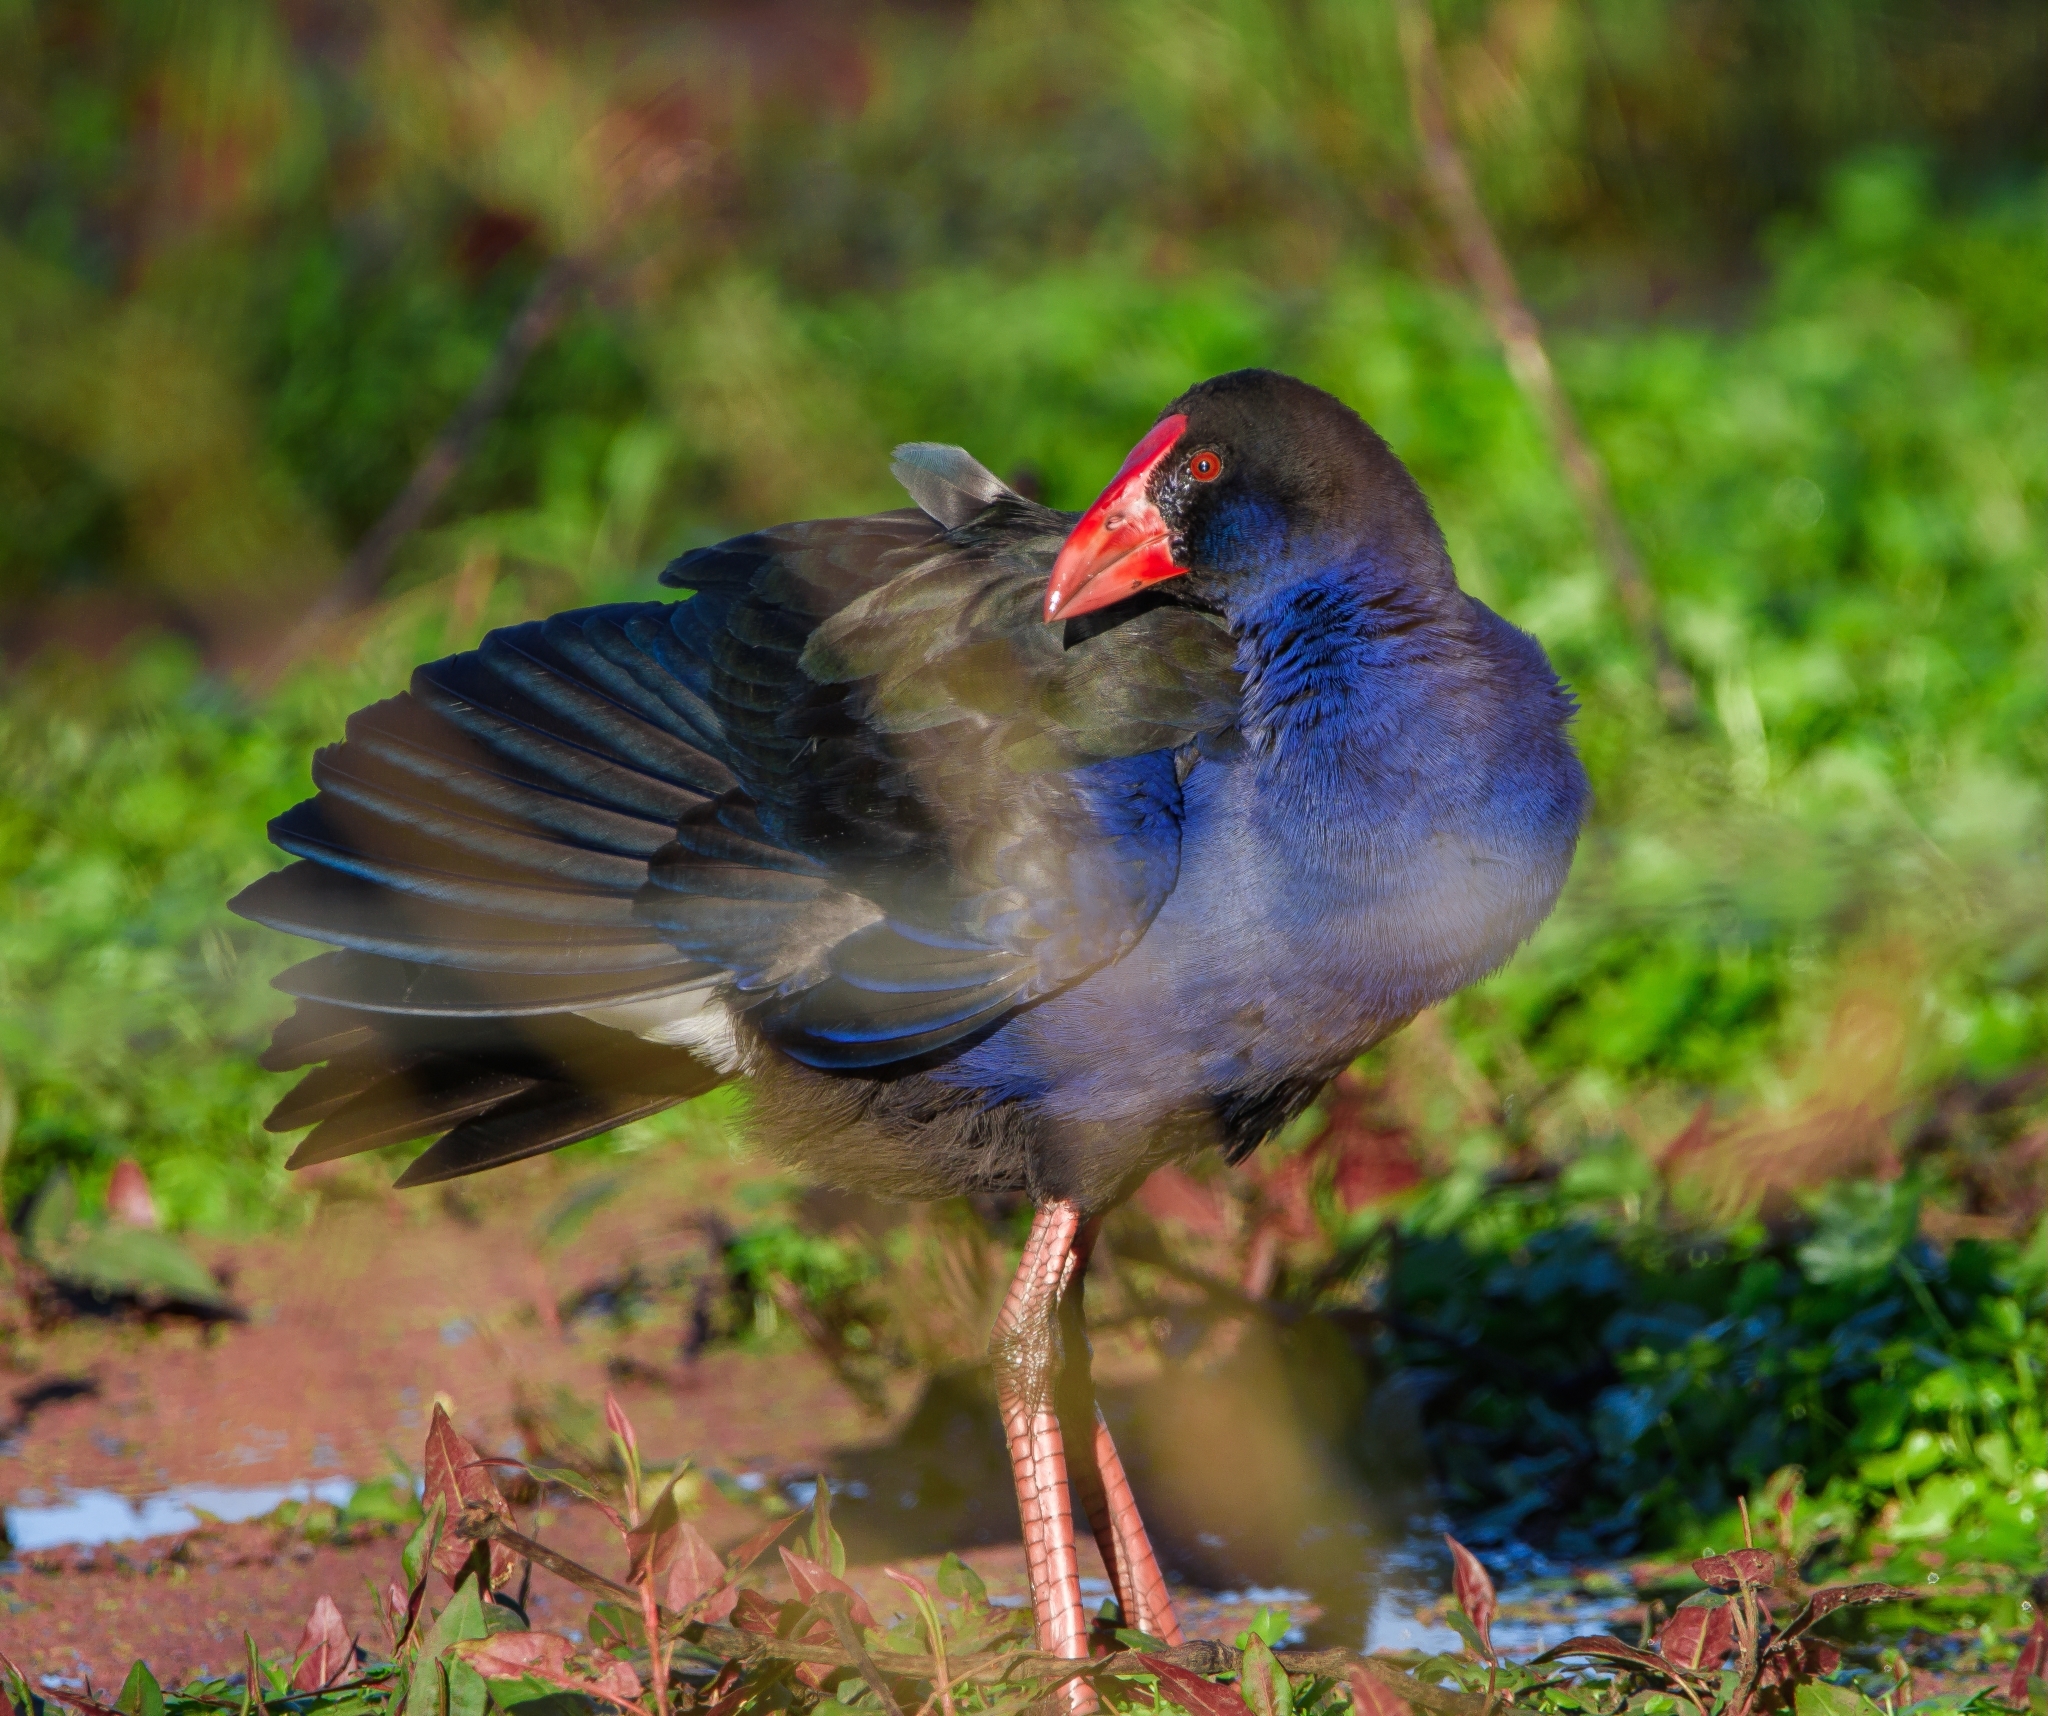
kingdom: Animalia
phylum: Chordata
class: Aves
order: Gruiformes
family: Rallidae
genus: Porphyrio
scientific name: Porphyrio melanotus
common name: Australasian swamphen
